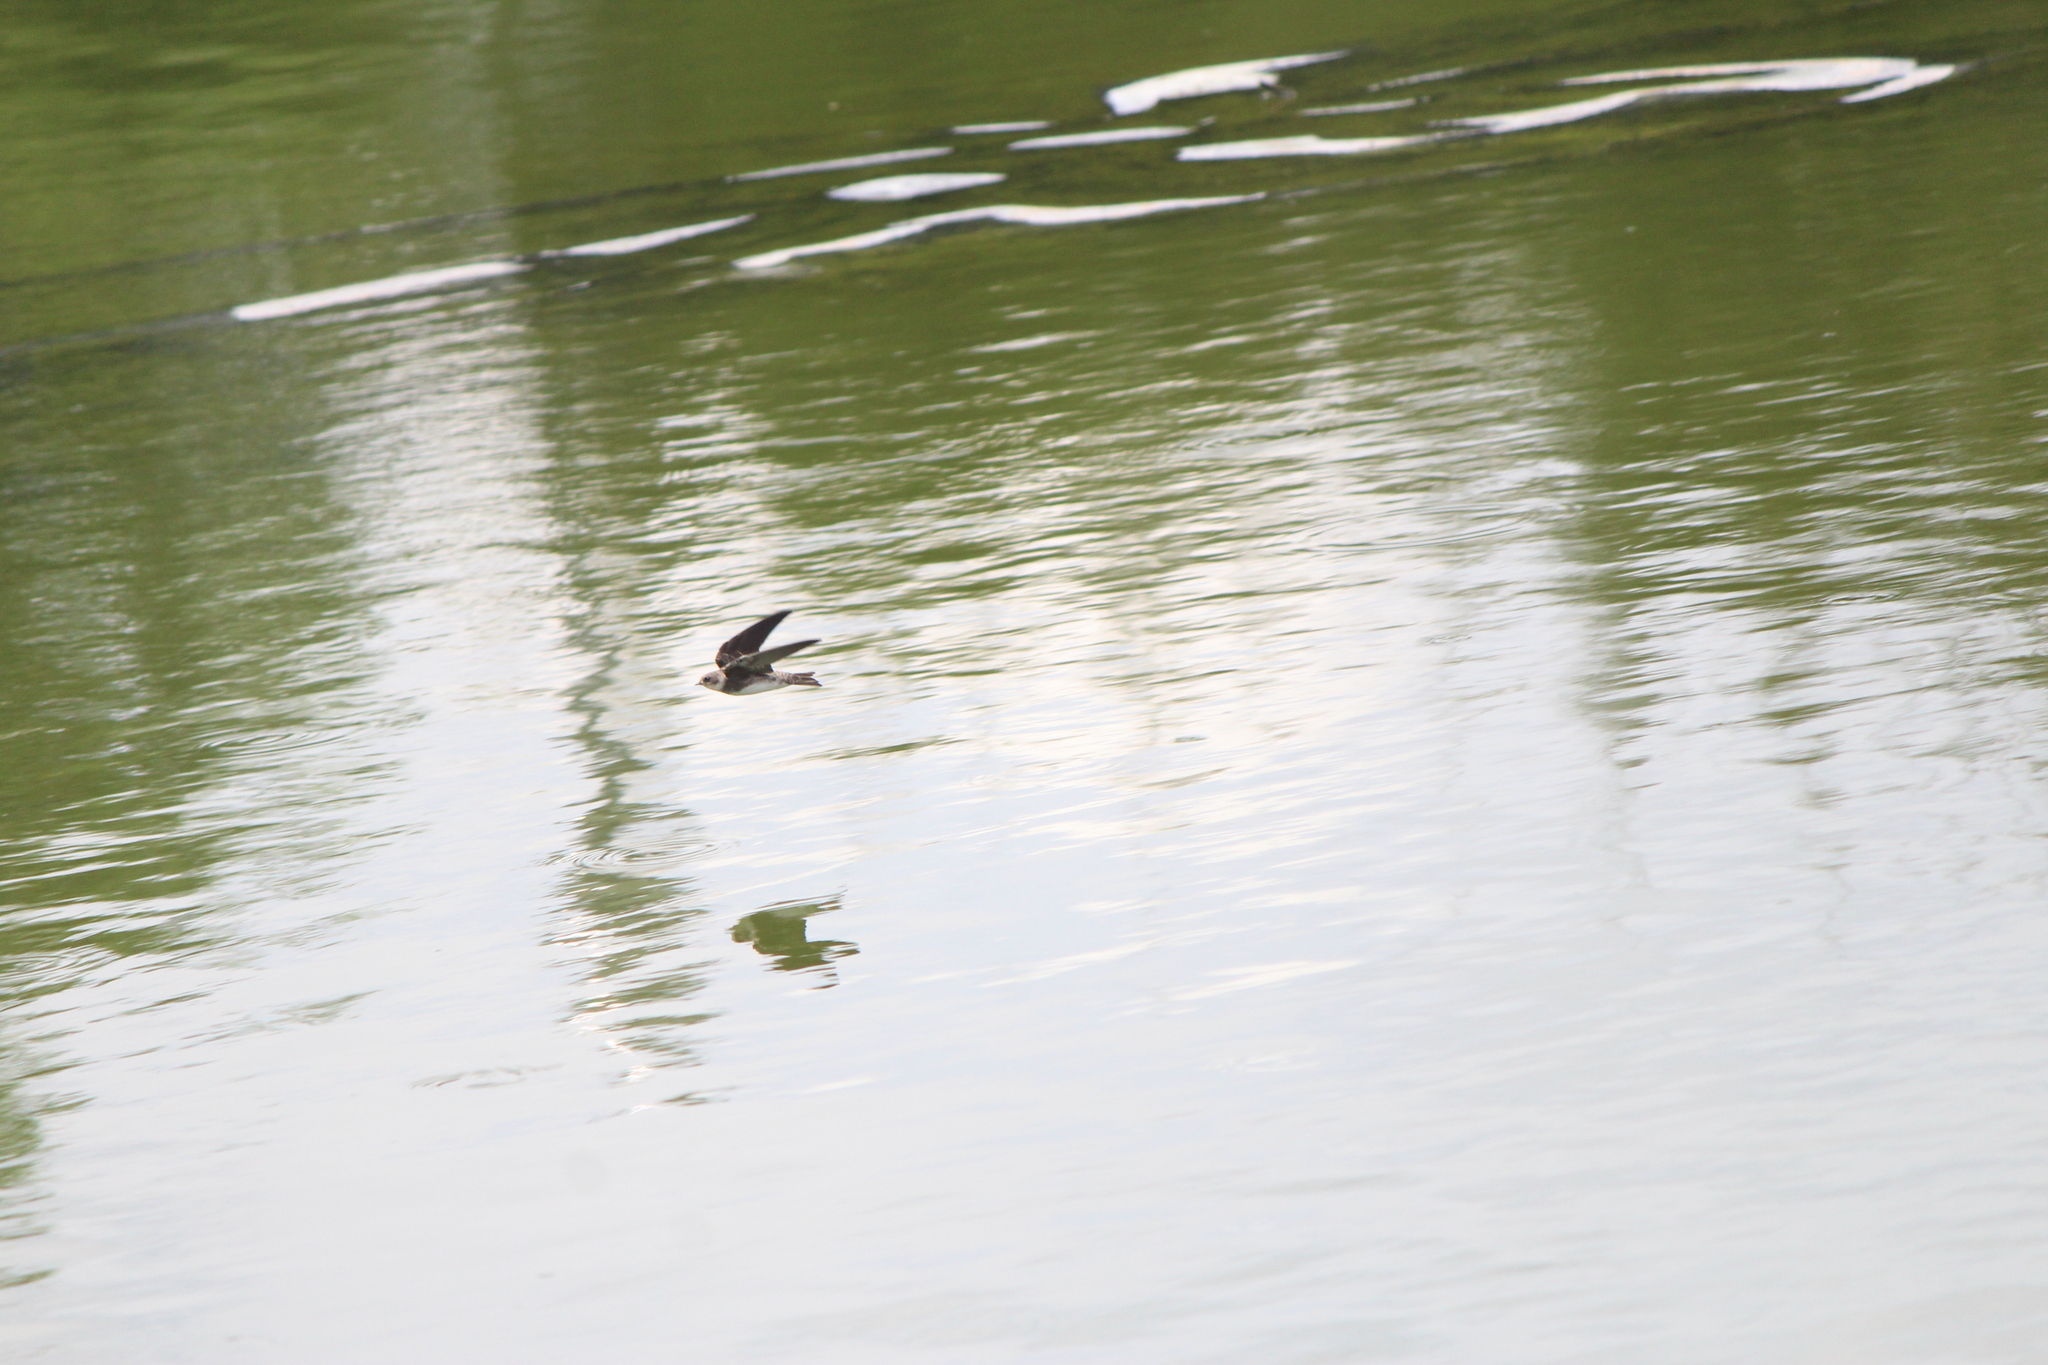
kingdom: Animalia
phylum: Chordata
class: Aves
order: Passeriformes
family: Hirundinidae
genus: Riparia
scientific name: Riparia riparia
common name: Sand martin
